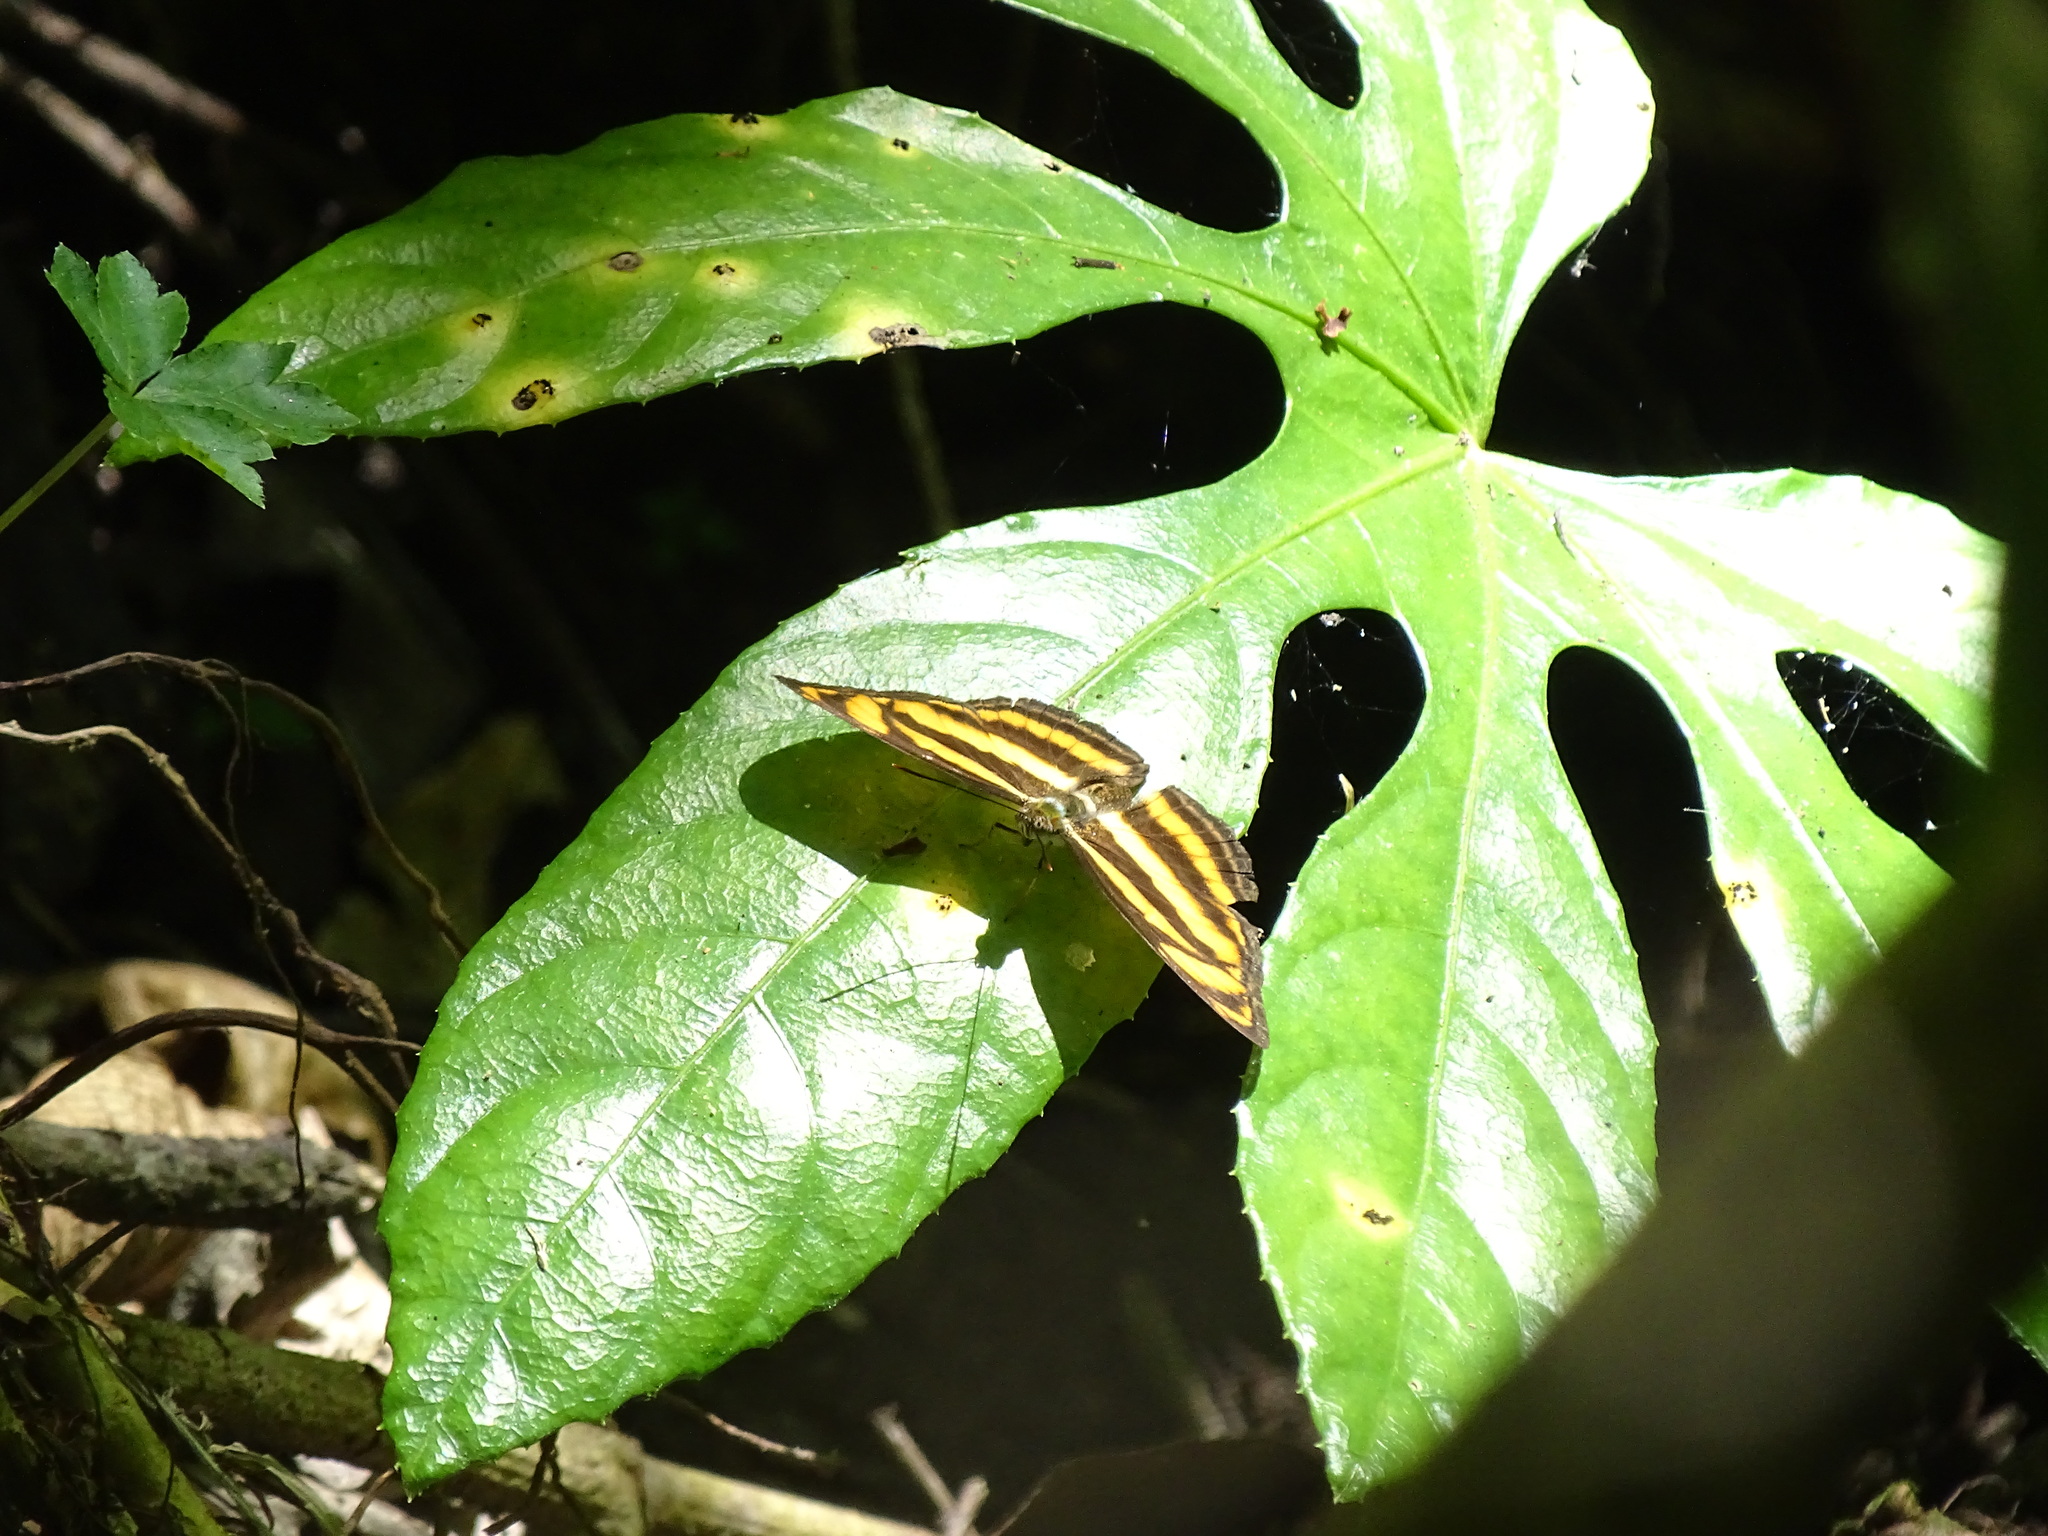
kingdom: Animalia
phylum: Arthropoda
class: Insecta
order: Lepidoptera
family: Nymphalidae
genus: Parathyma
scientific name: Parathyma nefte
